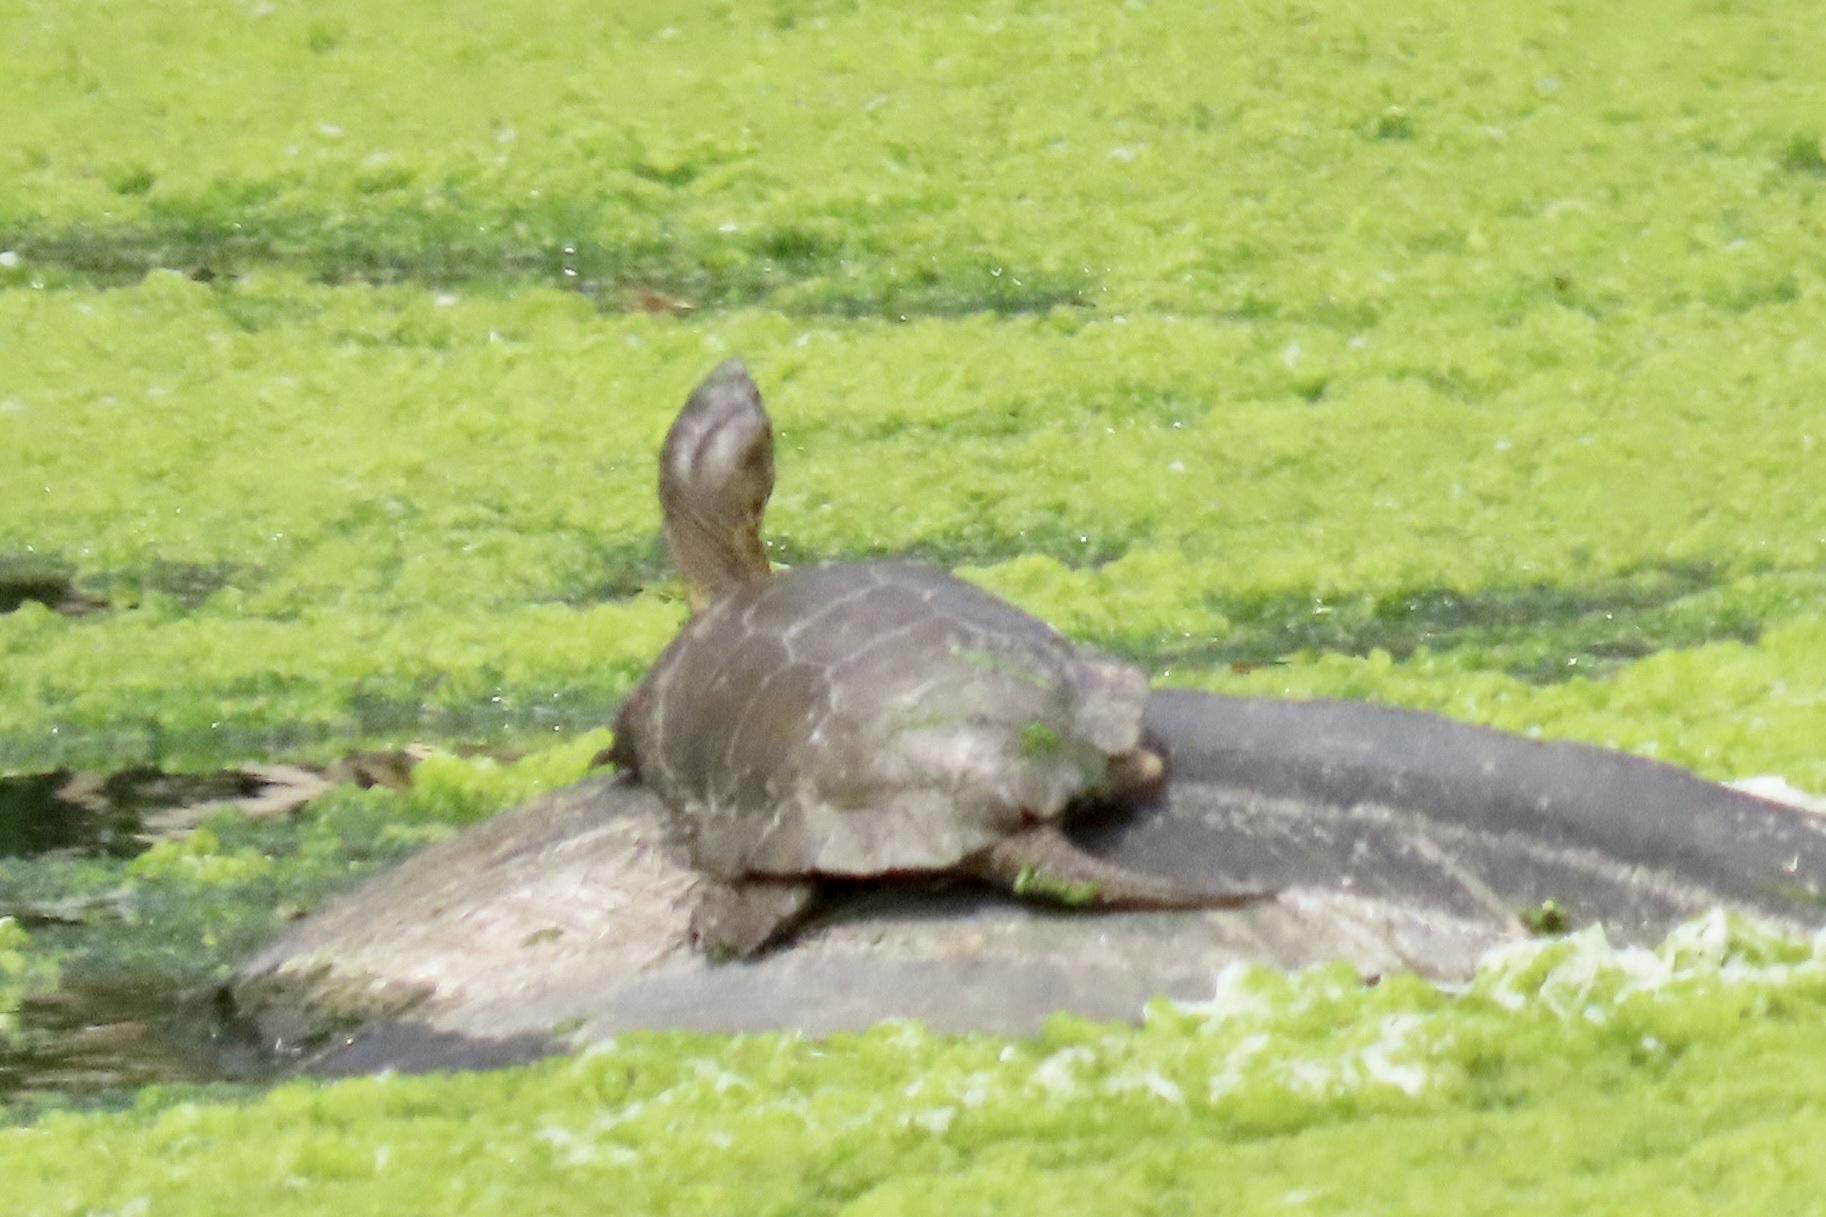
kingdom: Animalia
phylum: Chordata
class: Testudines
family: Emydidae
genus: Actinemys
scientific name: Actinemys marmorata
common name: Western pond turtle
